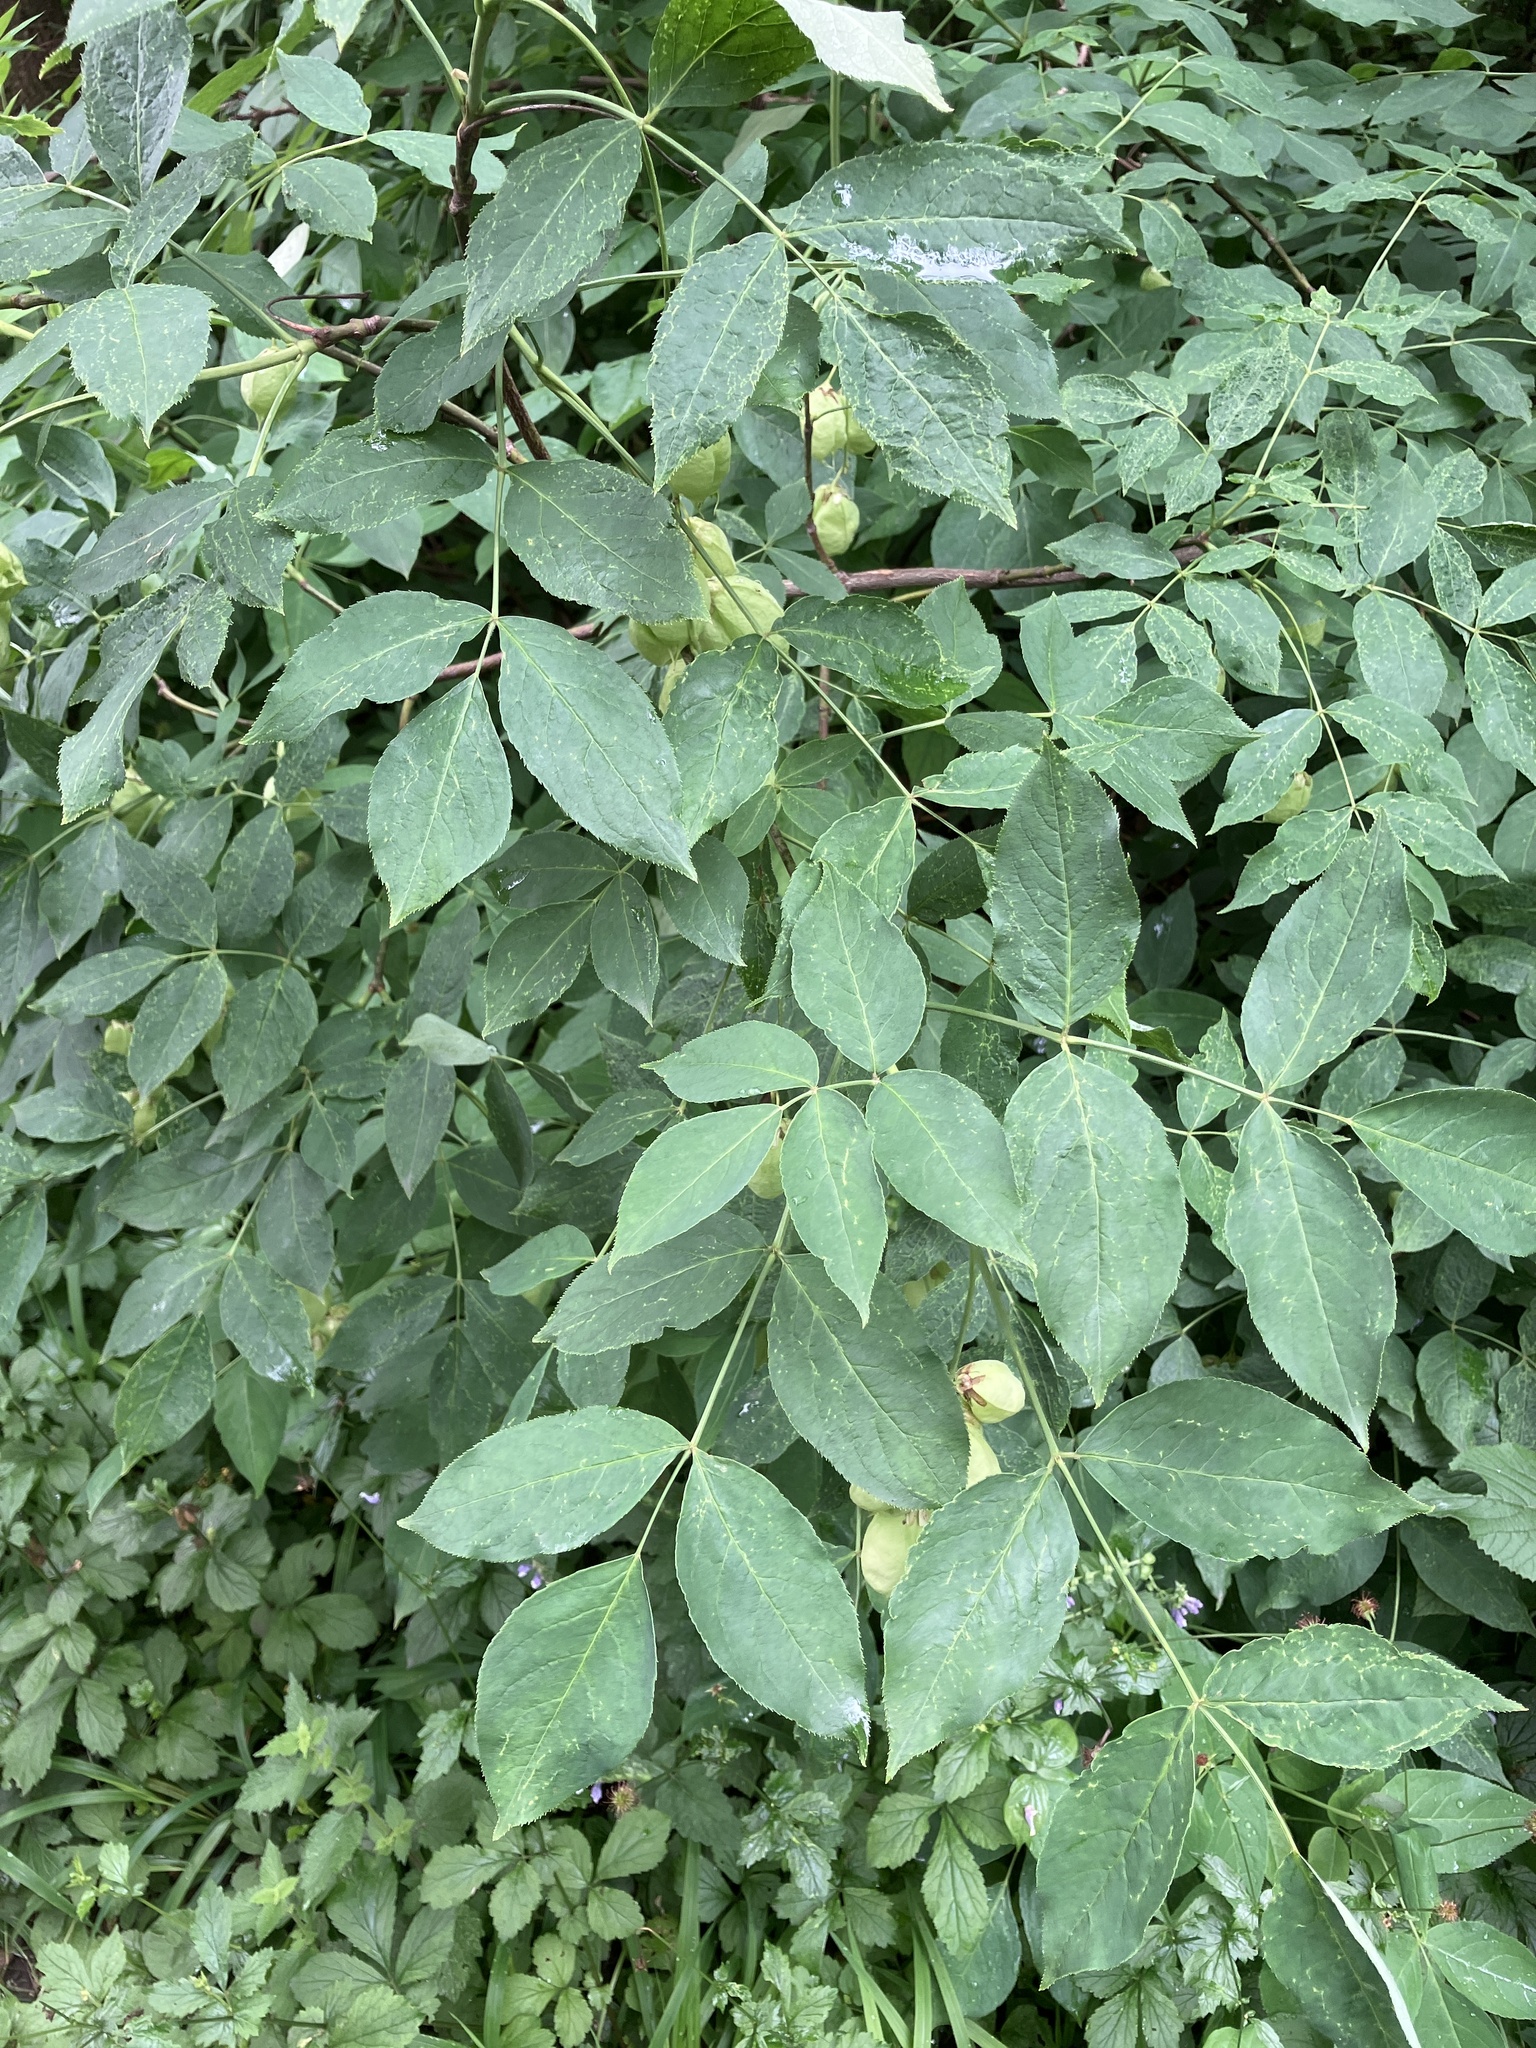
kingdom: Plantae
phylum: Tracheophyta
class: Magnoliopsida
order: Crossosomatales
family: Staphyleaceae
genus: Staphylea
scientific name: Staphylea pinnata
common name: Bladdernut
